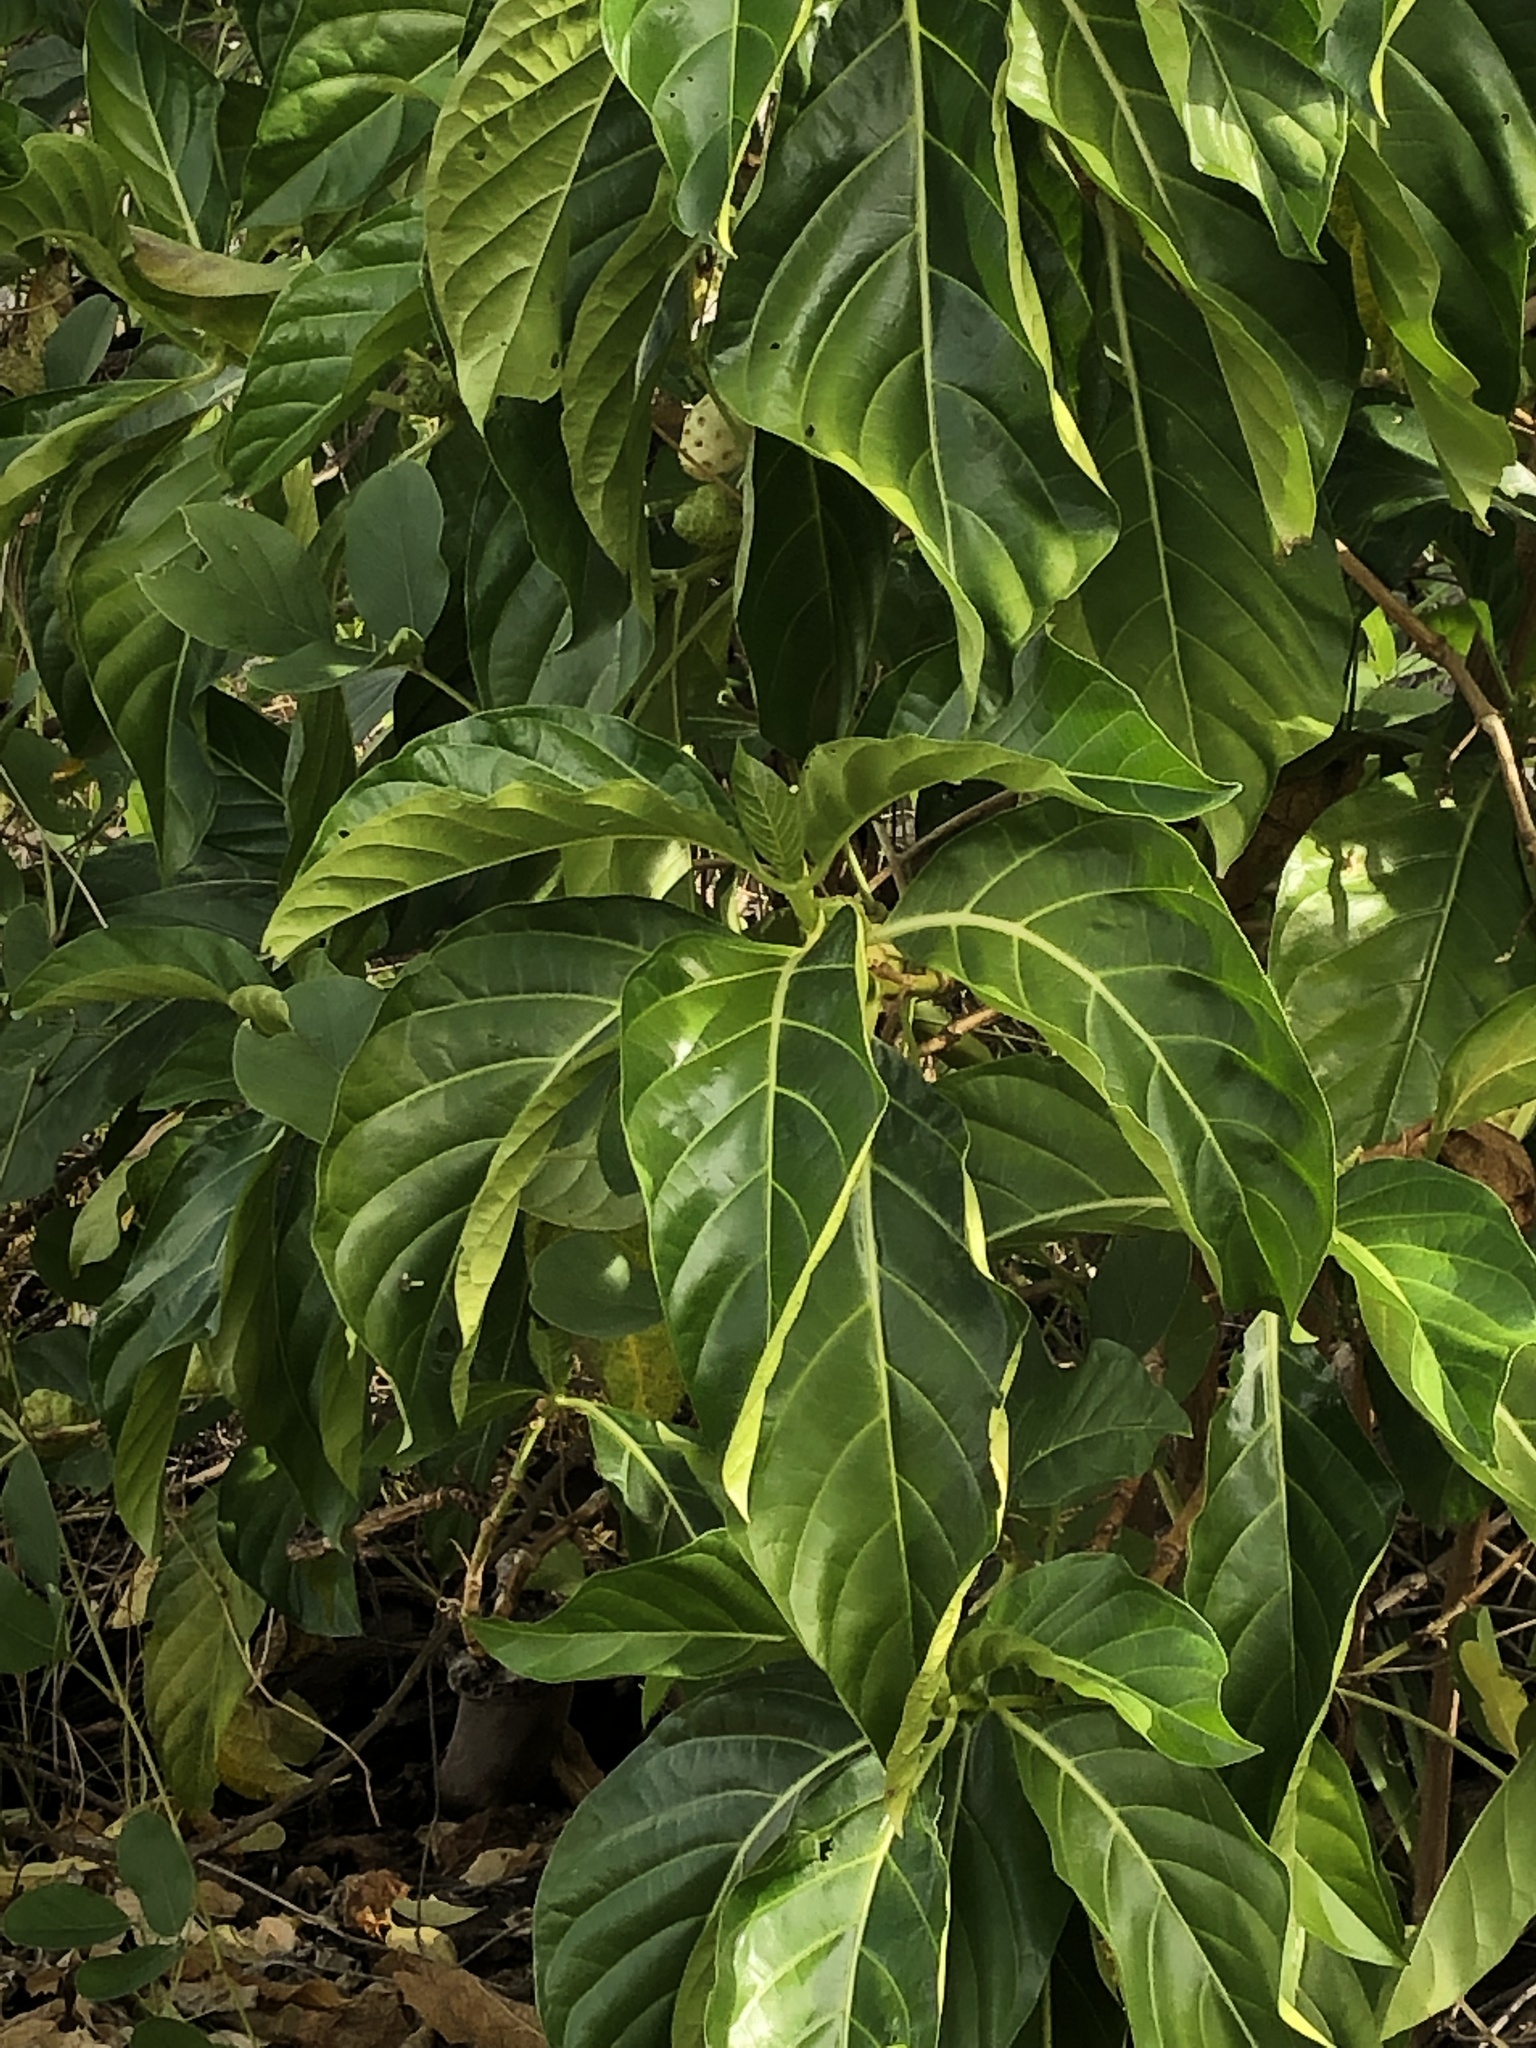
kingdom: Plantae
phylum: Tracheophyta
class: Magnoliopsida
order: Gentianales
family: Rubiaceae
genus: Morinda
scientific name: Morinda citrifolia
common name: Indian-mulberry
